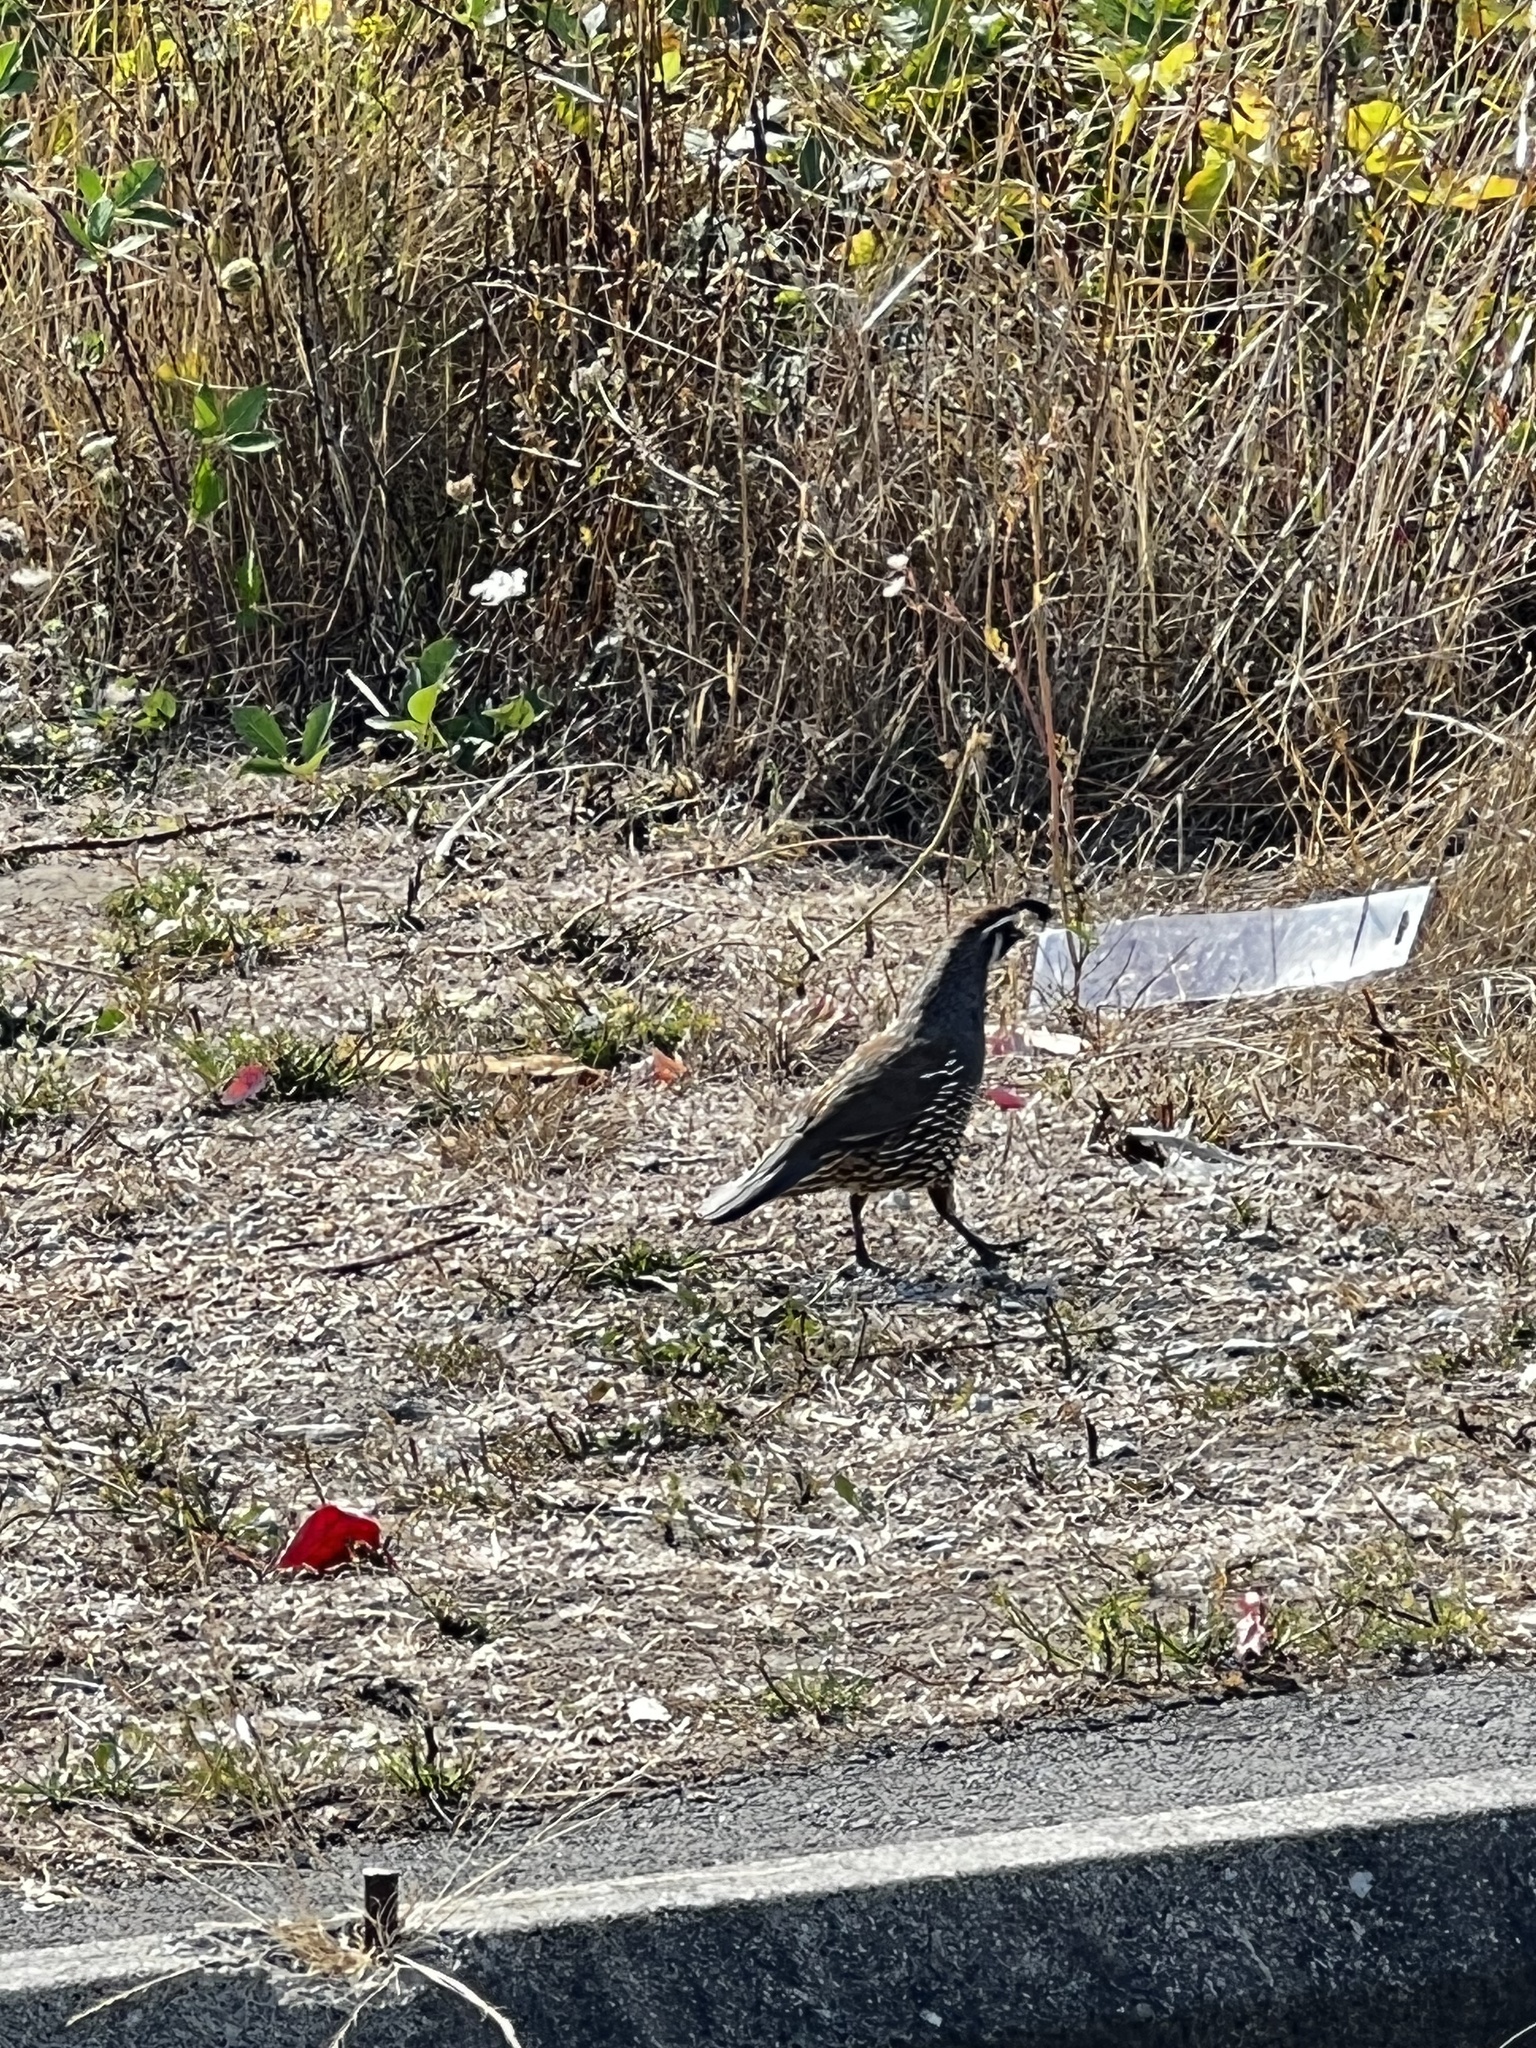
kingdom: Animalia
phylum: Chordata
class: Aves
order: Galliformes
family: Odontophoridae
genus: Callipepla
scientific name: Callipepla californica
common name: California quail
